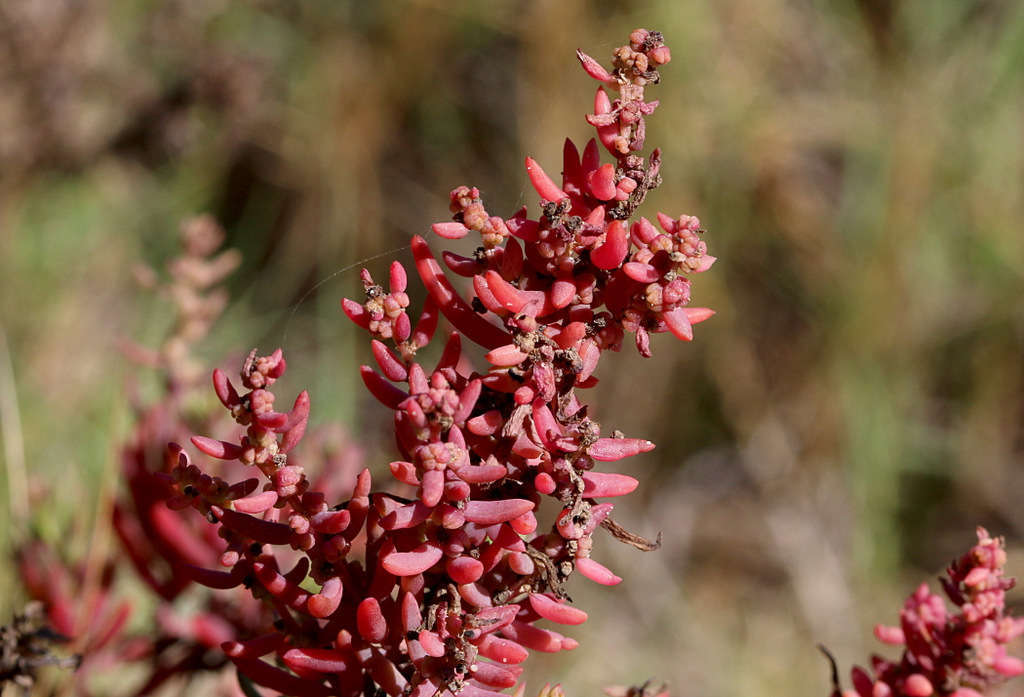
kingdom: Plantae
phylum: Tracheophyta
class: Magnoliopsida
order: Caryophyllales
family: Amaranthaceae
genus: Suaeda
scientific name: Suaeda australis
